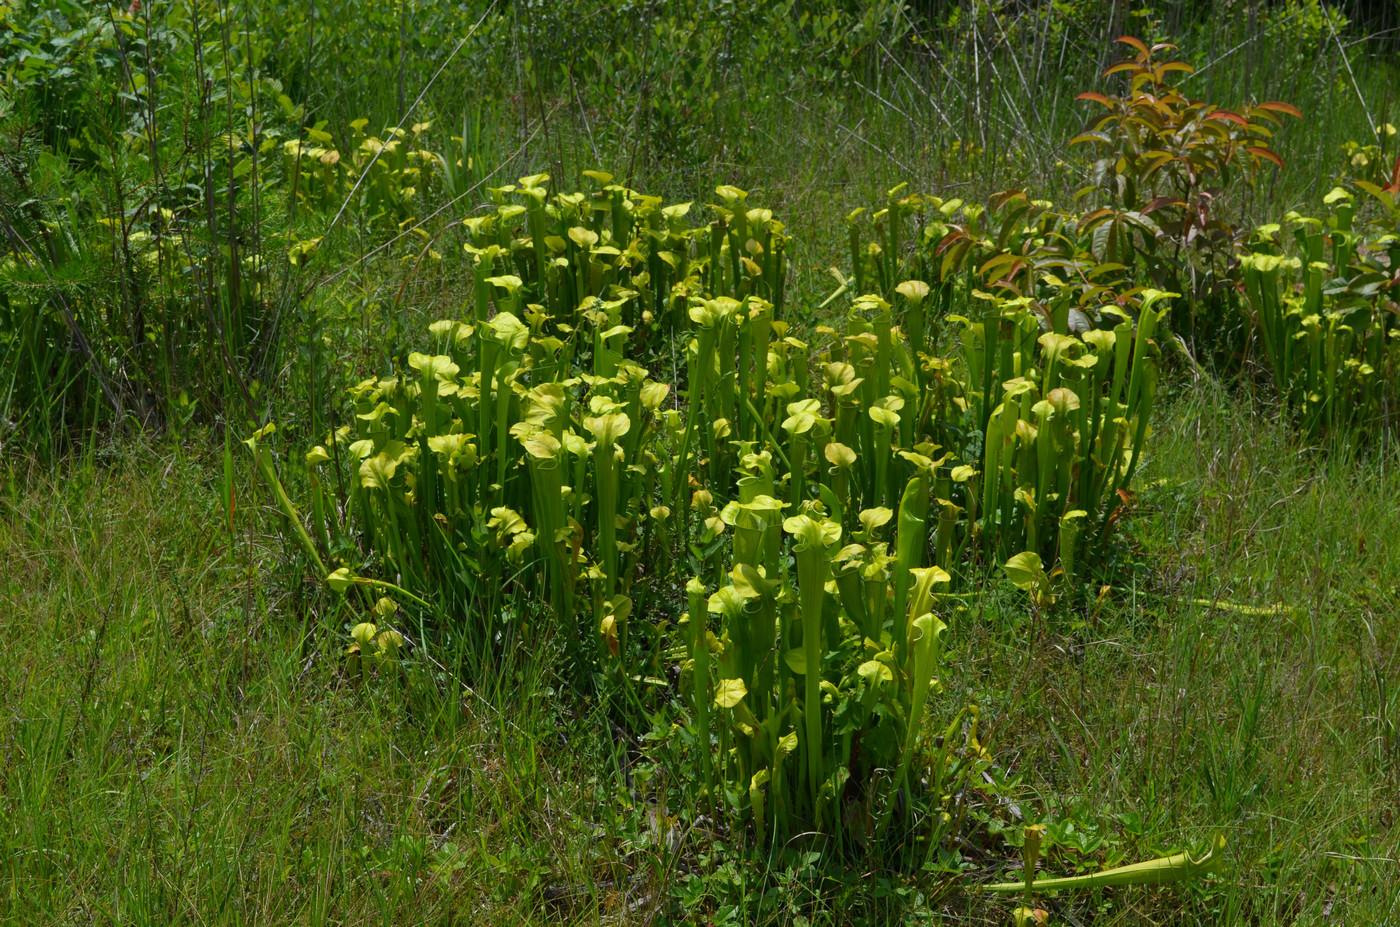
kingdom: Plantae
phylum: Tracheophyta
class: Magnoliopsida
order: Ericales
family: Sarraceniaceae
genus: Sarracenia
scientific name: Sarracenia oreophila
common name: Green pitcherplant
